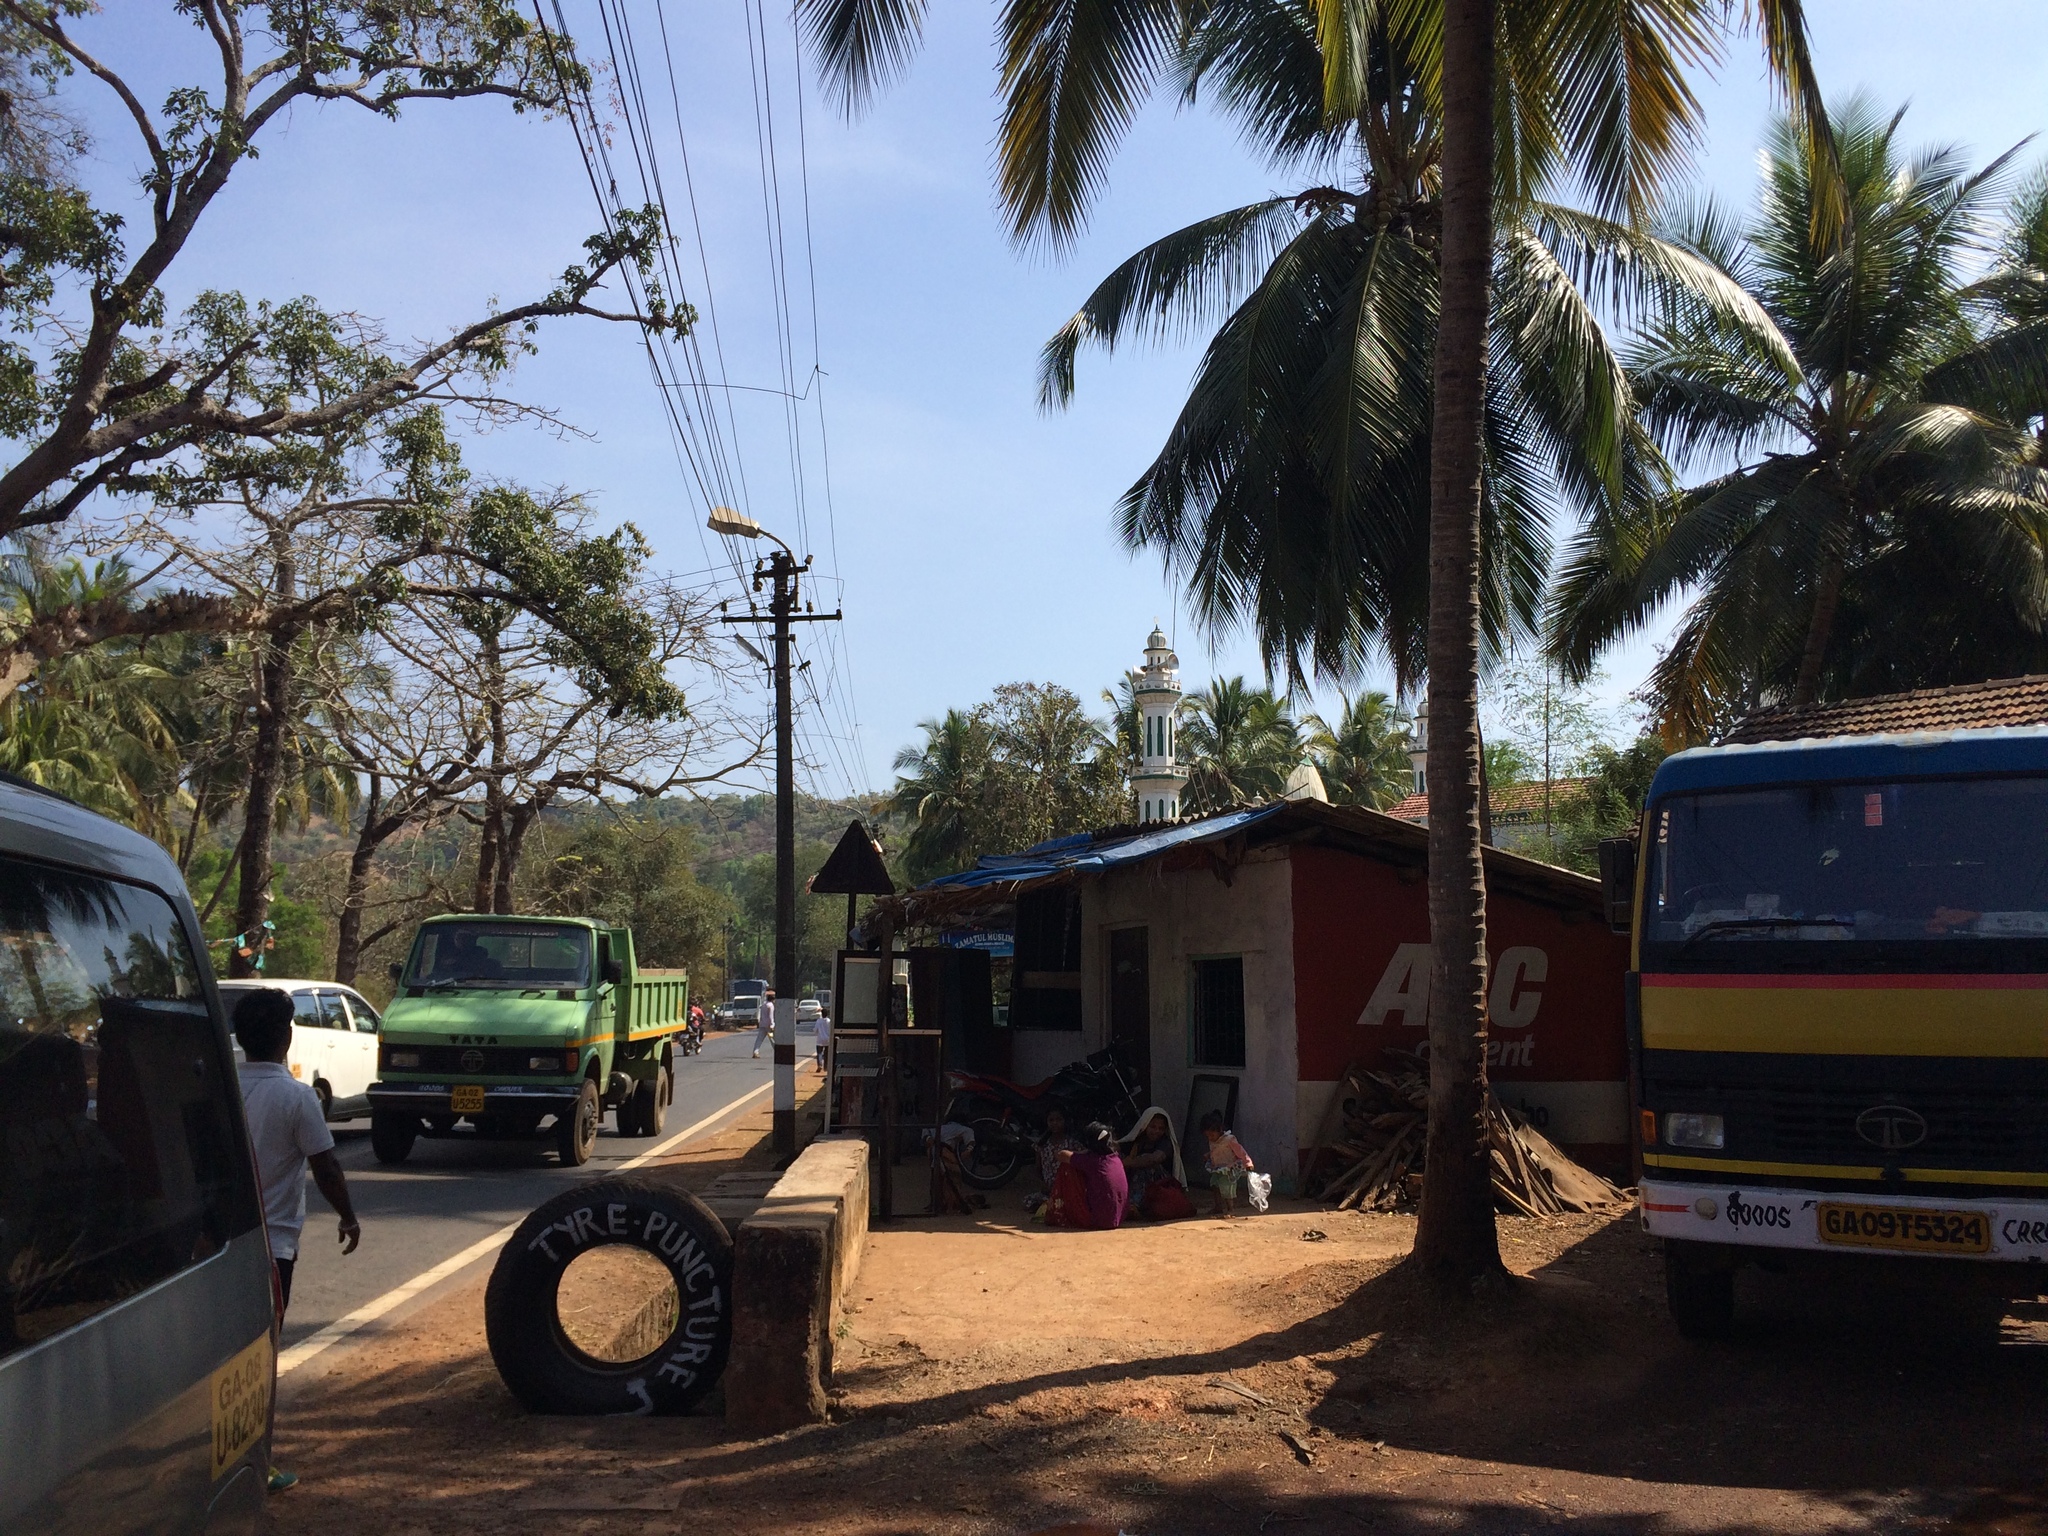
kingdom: Plantae
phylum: Tracheophyta
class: Liliopsida
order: Arecales
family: Arecaceae
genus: Cocos
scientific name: Cocos nucifera
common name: Coconut palm
